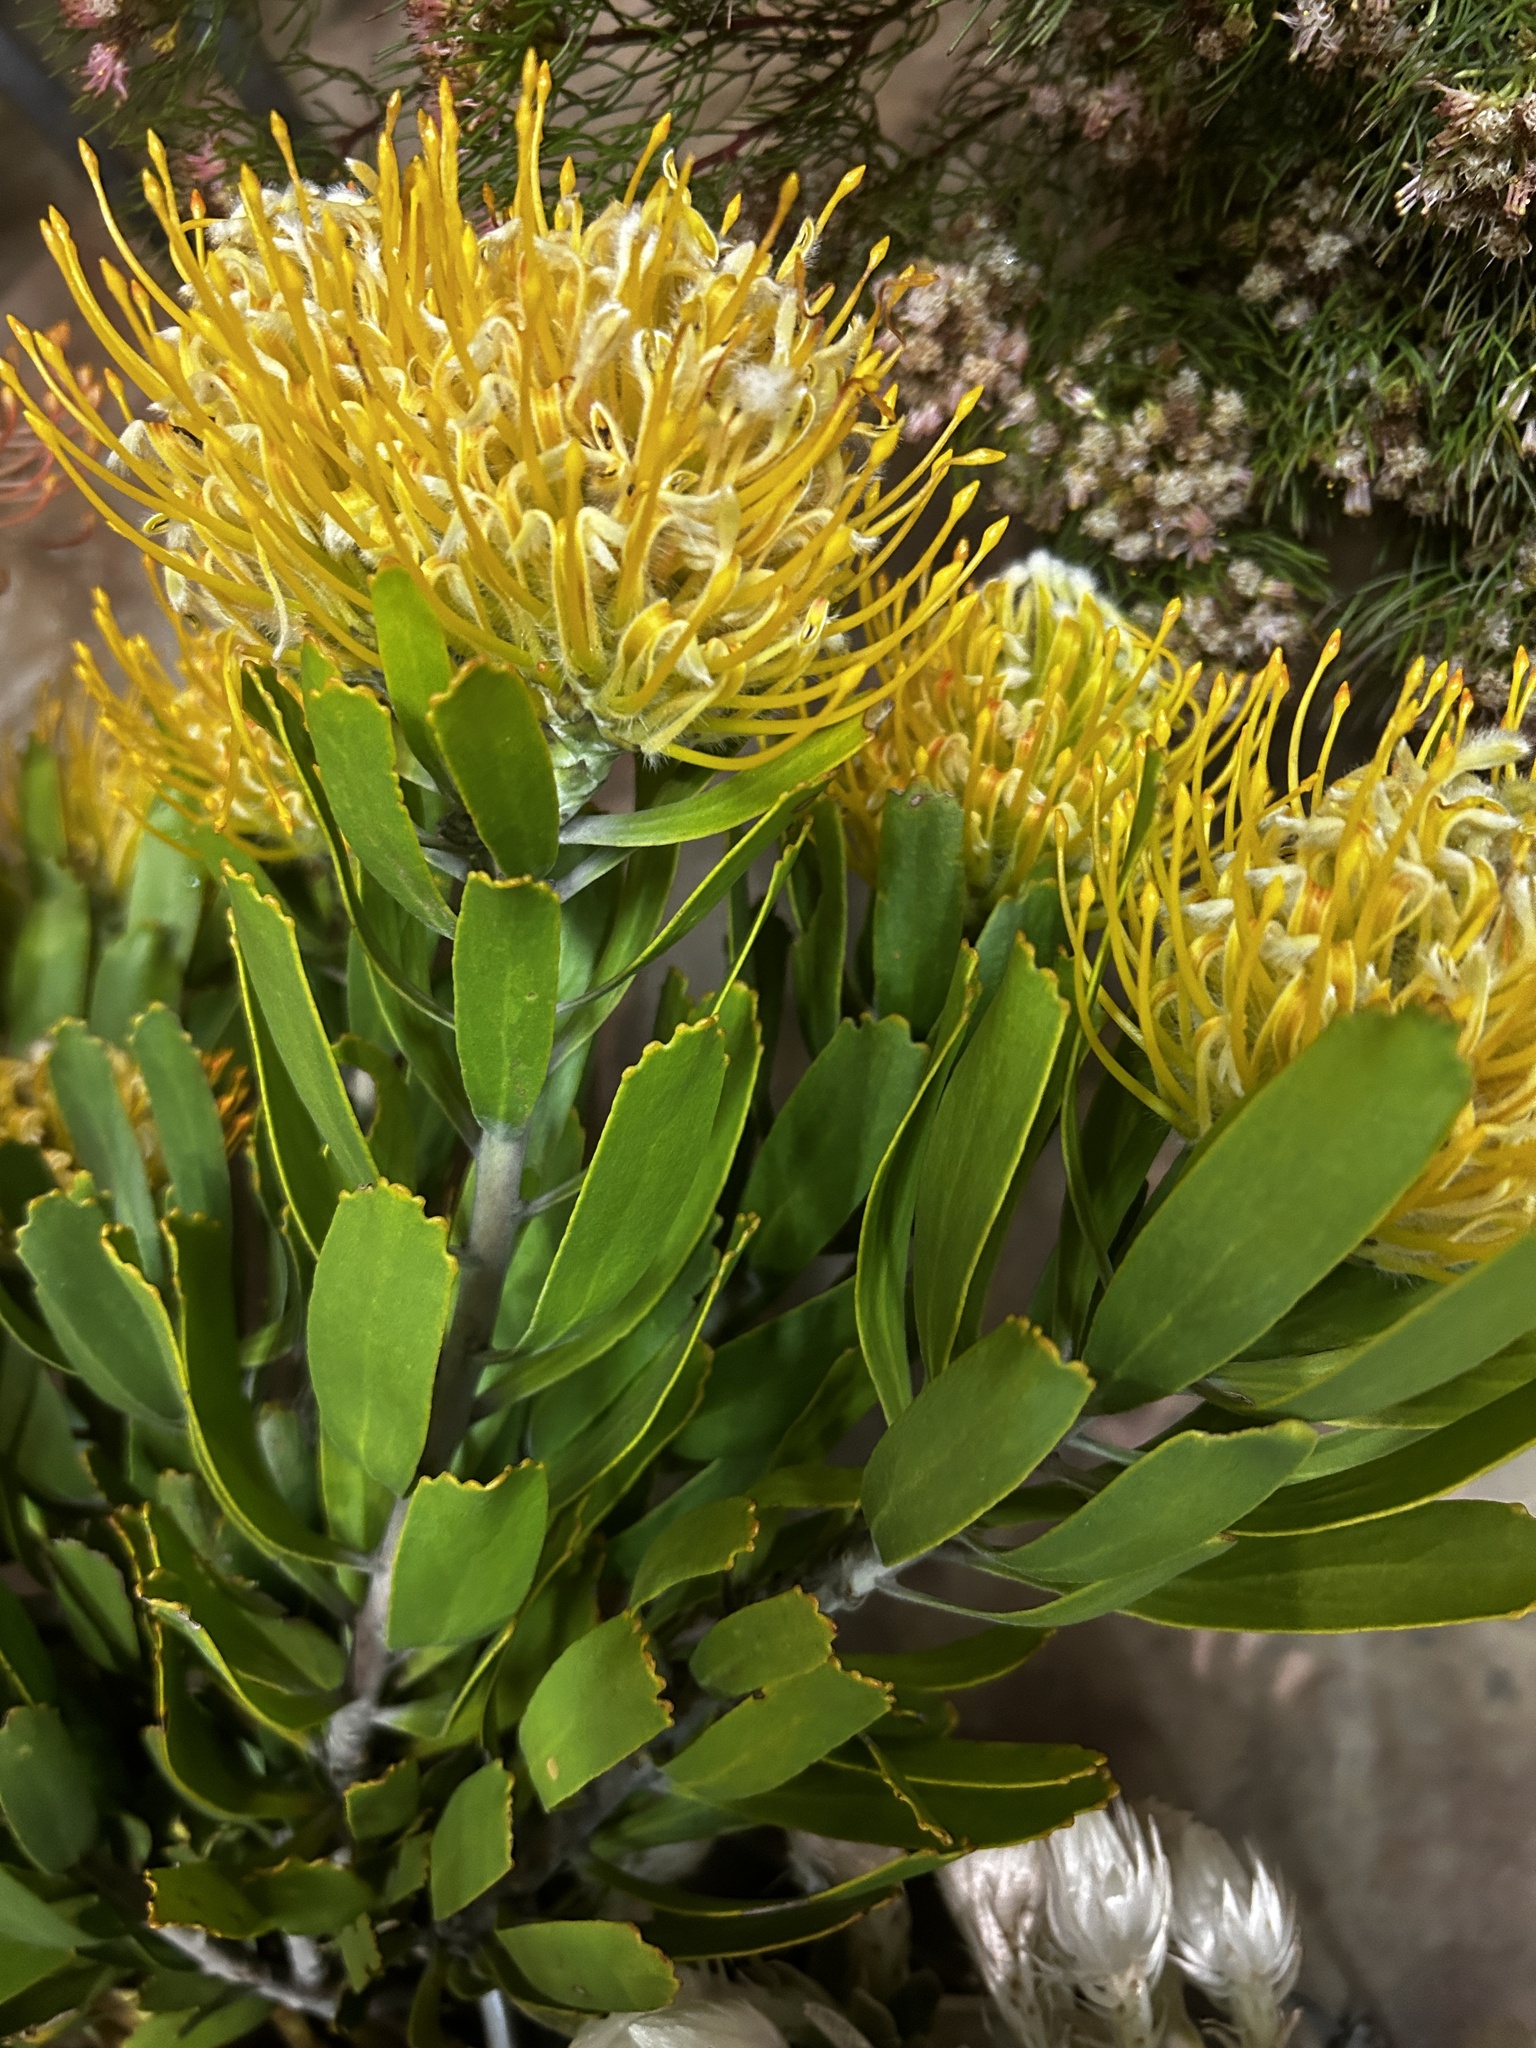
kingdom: Plantae
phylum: Tracheophyta
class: Magnoliopsida
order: Proteales
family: Proteaceae
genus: Leucospermum
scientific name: Leucospermum cuneiforme
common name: Common pincushion
